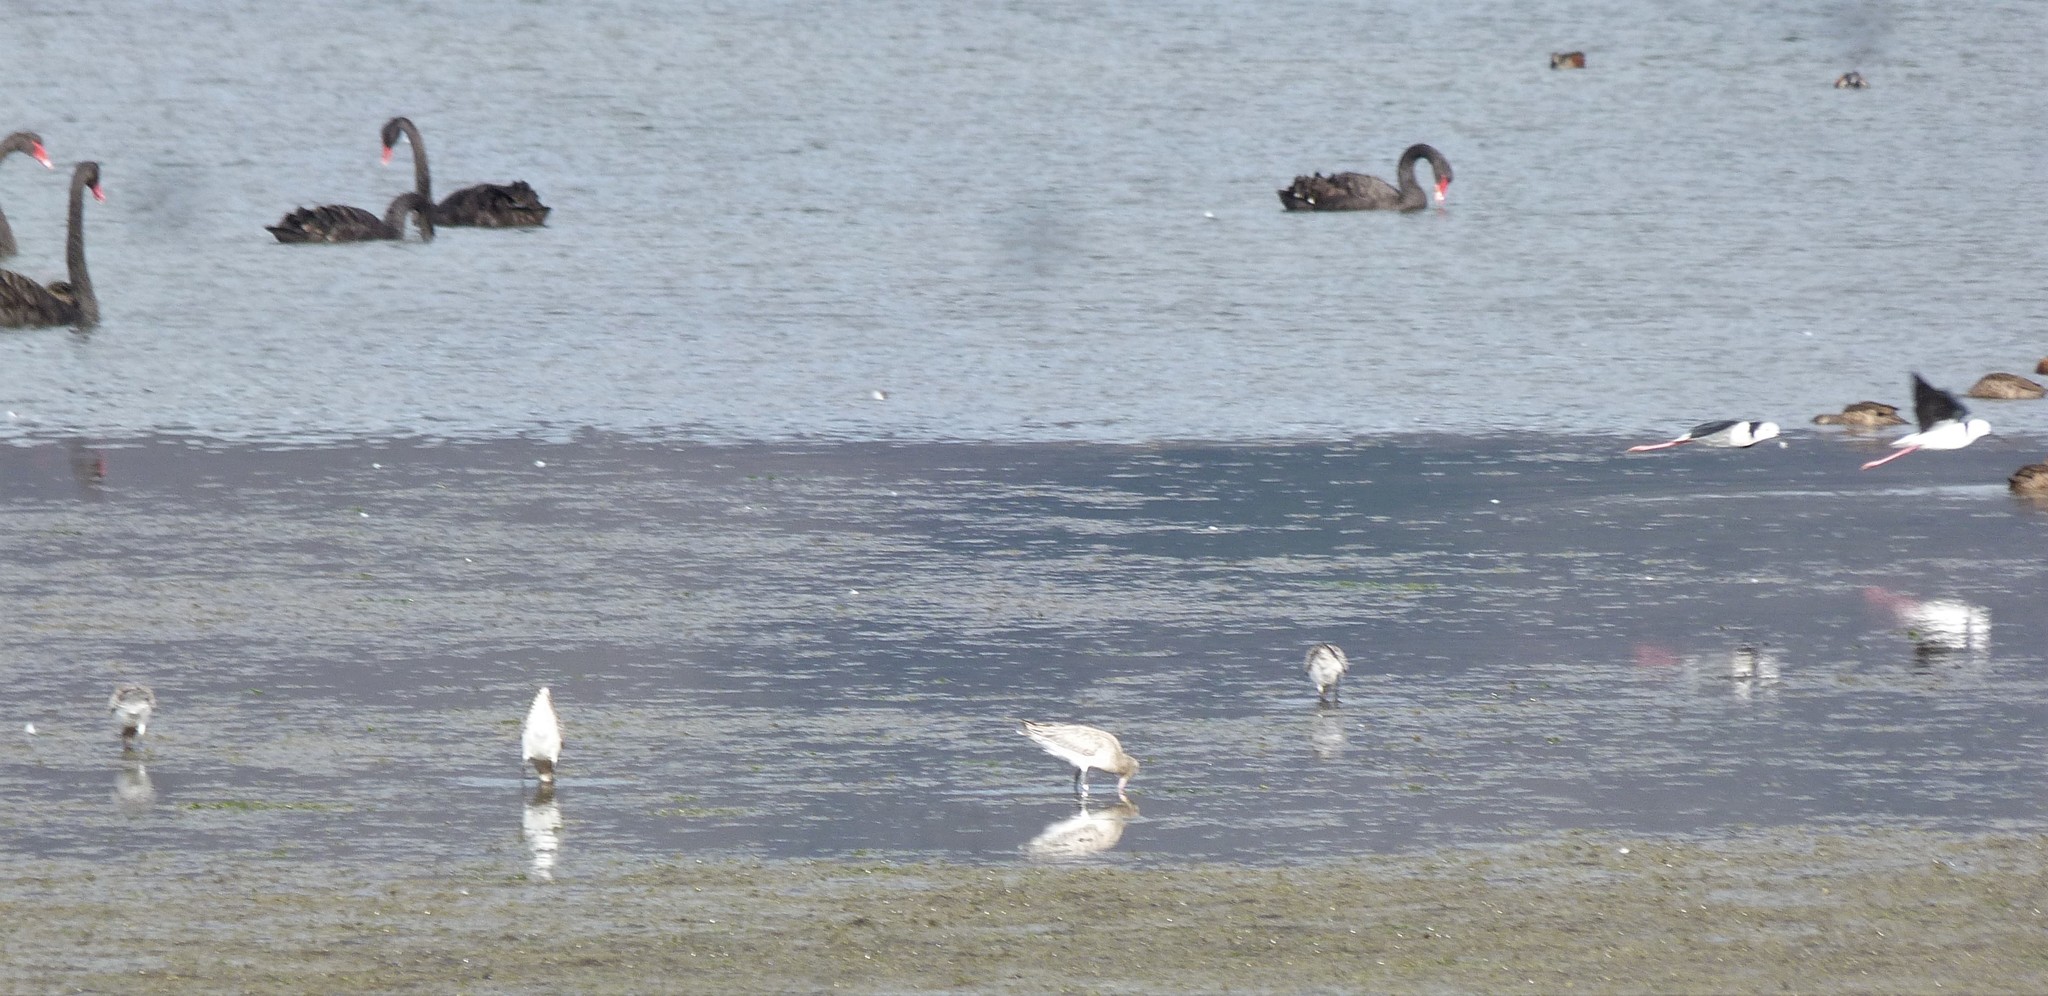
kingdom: Animalia
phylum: Chordata
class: Aves
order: Charadriiformes
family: Scolopacidae
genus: Limosa
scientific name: Limosa lapponica
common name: Bar-tailed godwit
